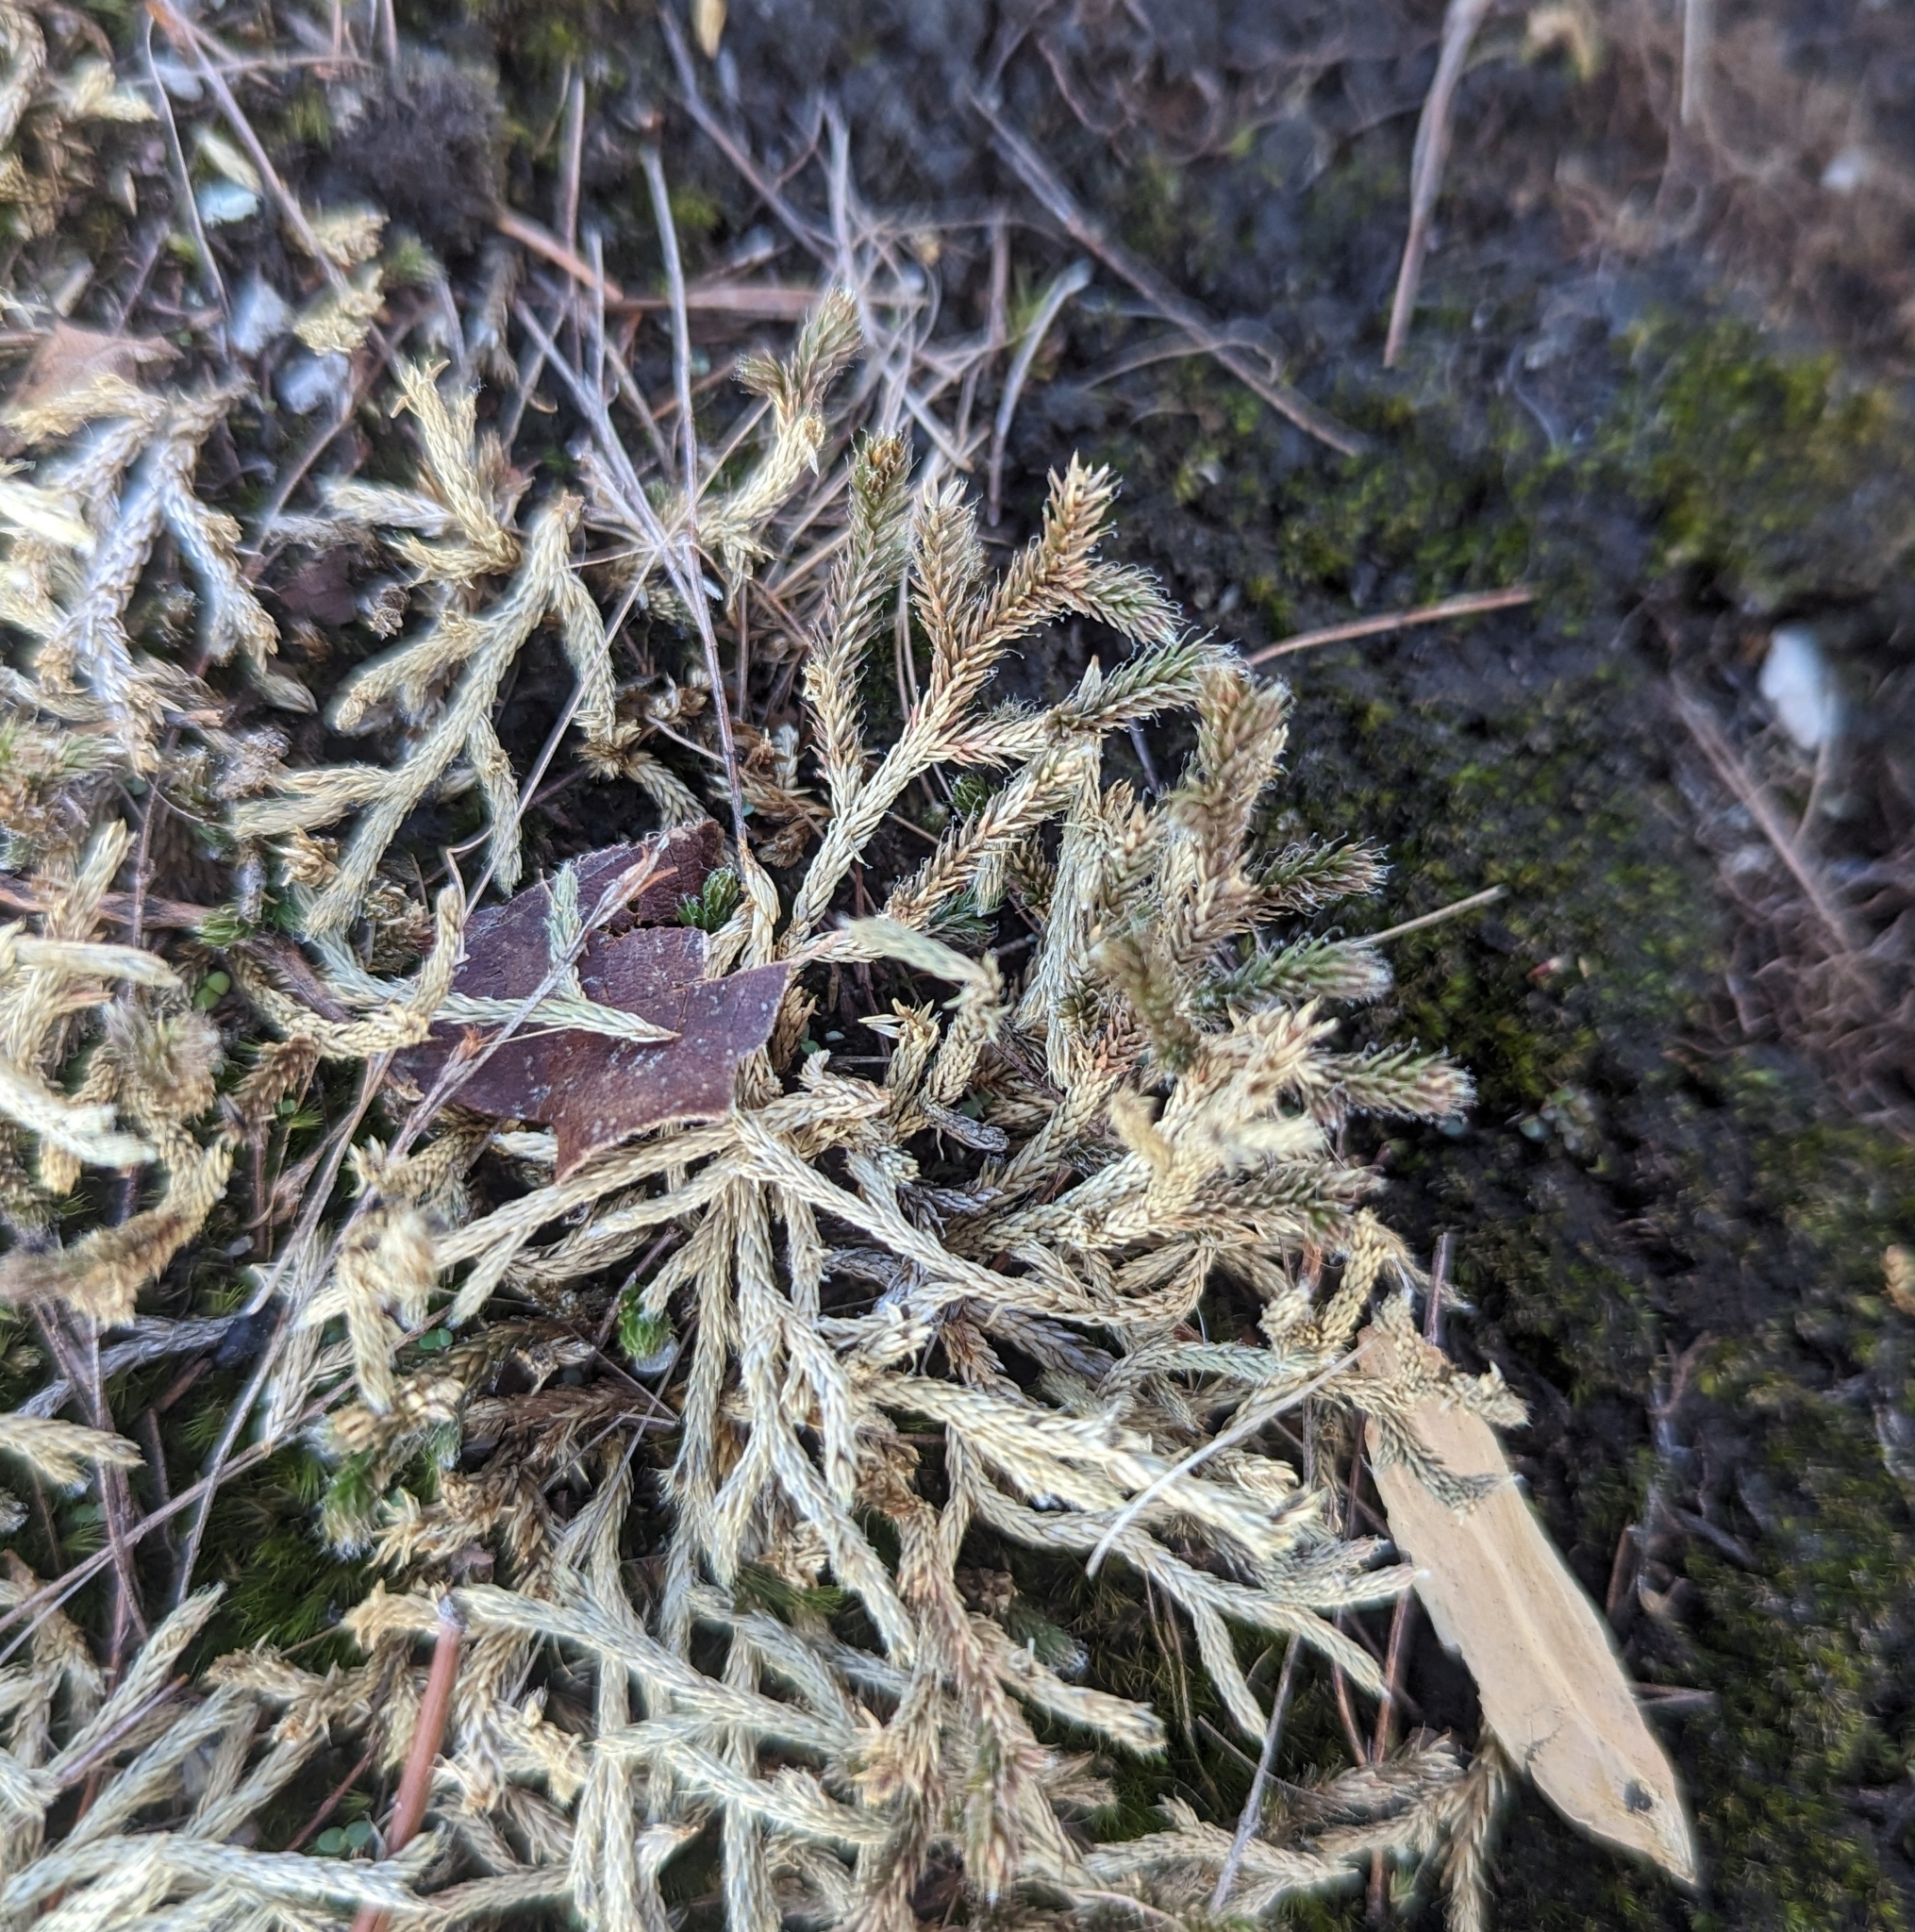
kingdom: Plantae
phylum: Tracheophyta
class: Lycopodiopsida
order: Selaginellales
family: Selaginellaceae
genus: Selaginella
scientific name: Selaginella tortipila
